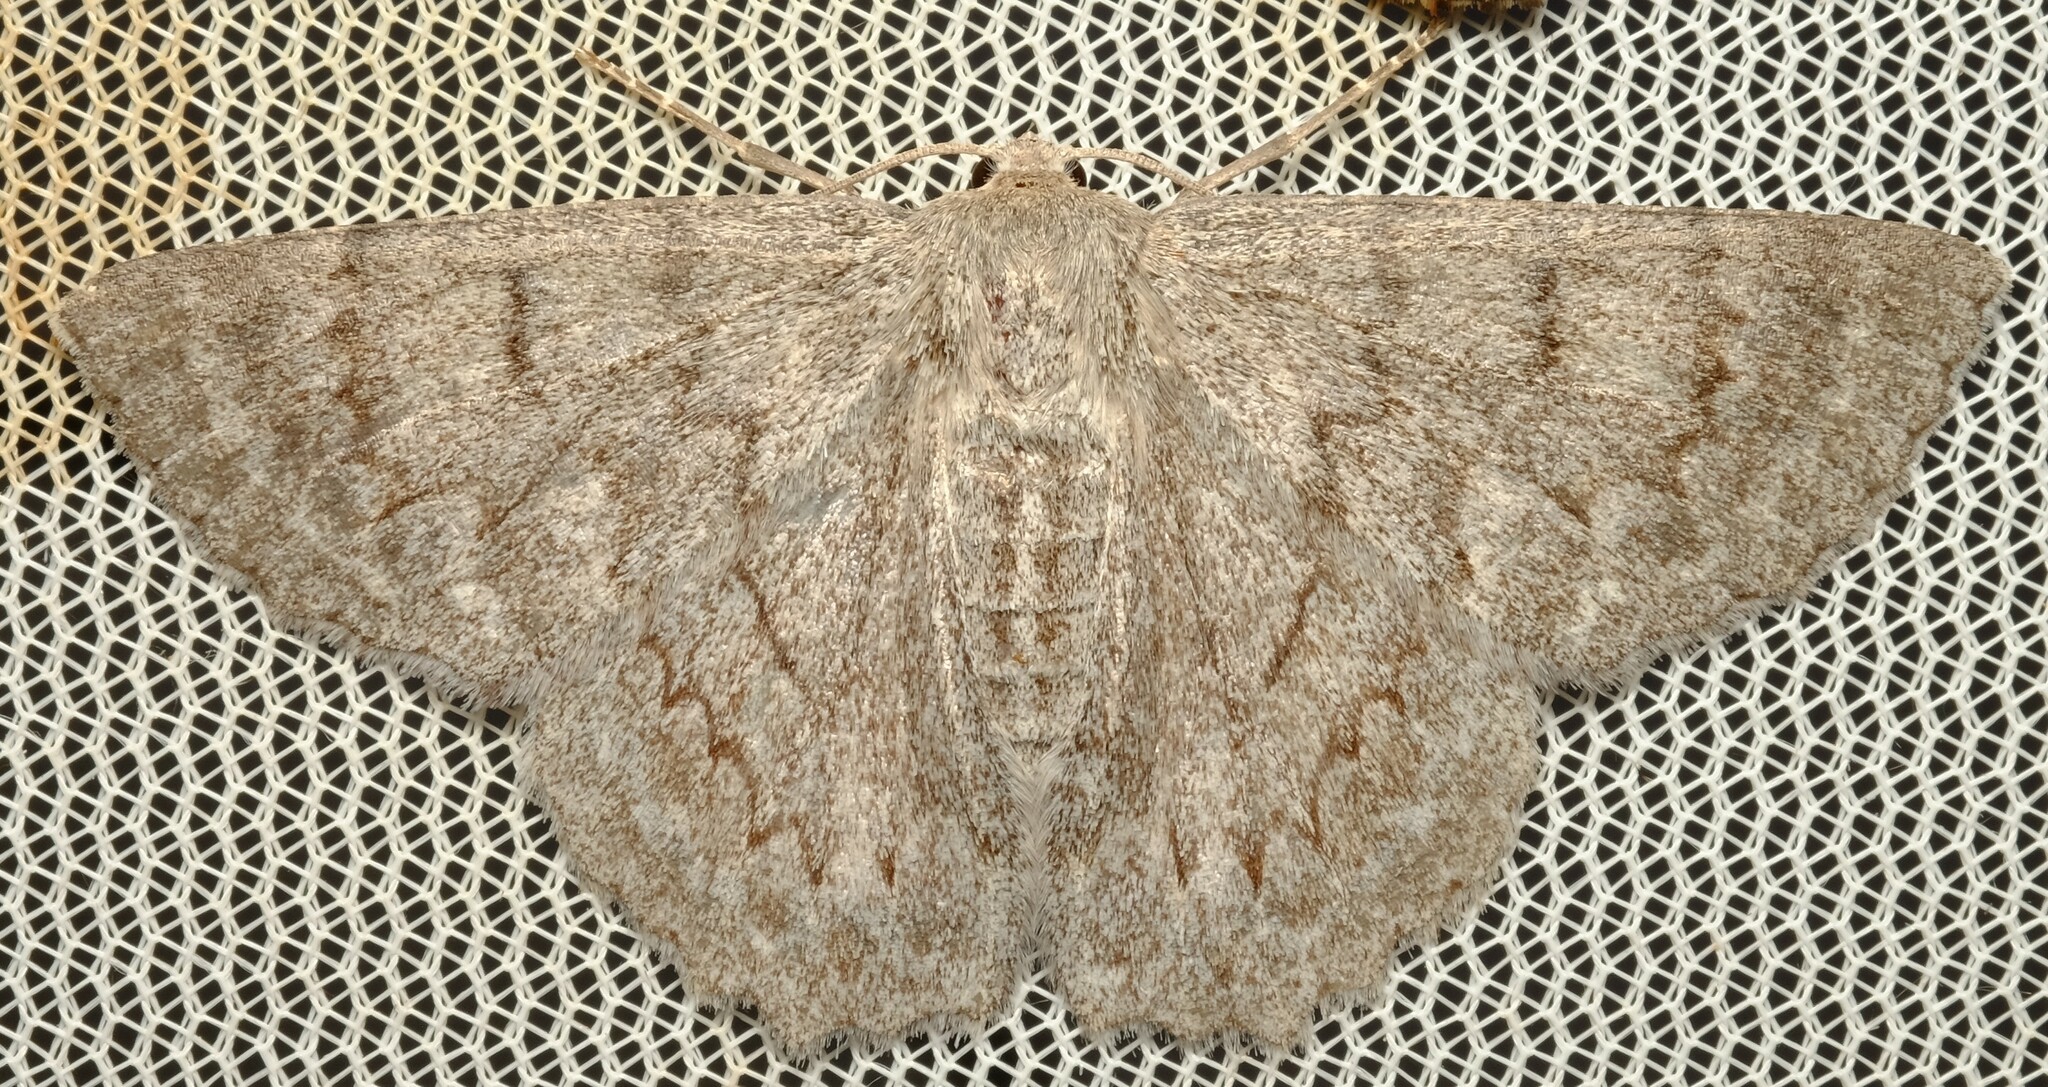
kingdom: Animalia
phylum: Arthropoda
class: Insecta
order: Lepidoptera
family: Geometridae
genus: Crypsiphona
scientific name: Crypsiphona ocultaria
